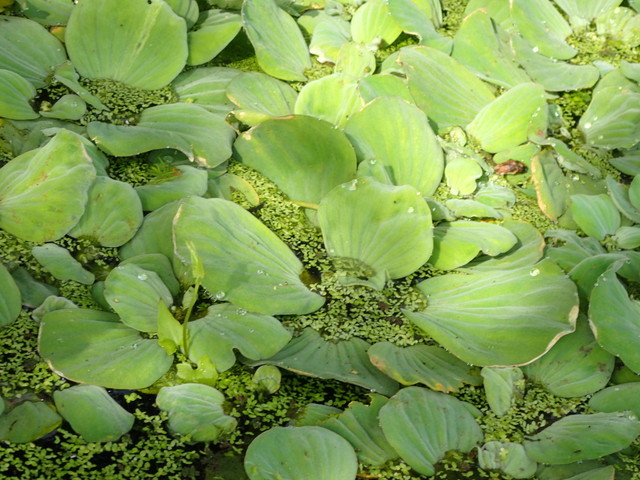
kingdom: Plantae
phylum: Tracheophyta
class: Liliopsida
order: Alismatales
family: Araceae
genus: Pistia
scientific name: Pistia stratiotes
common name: Water lettuce
